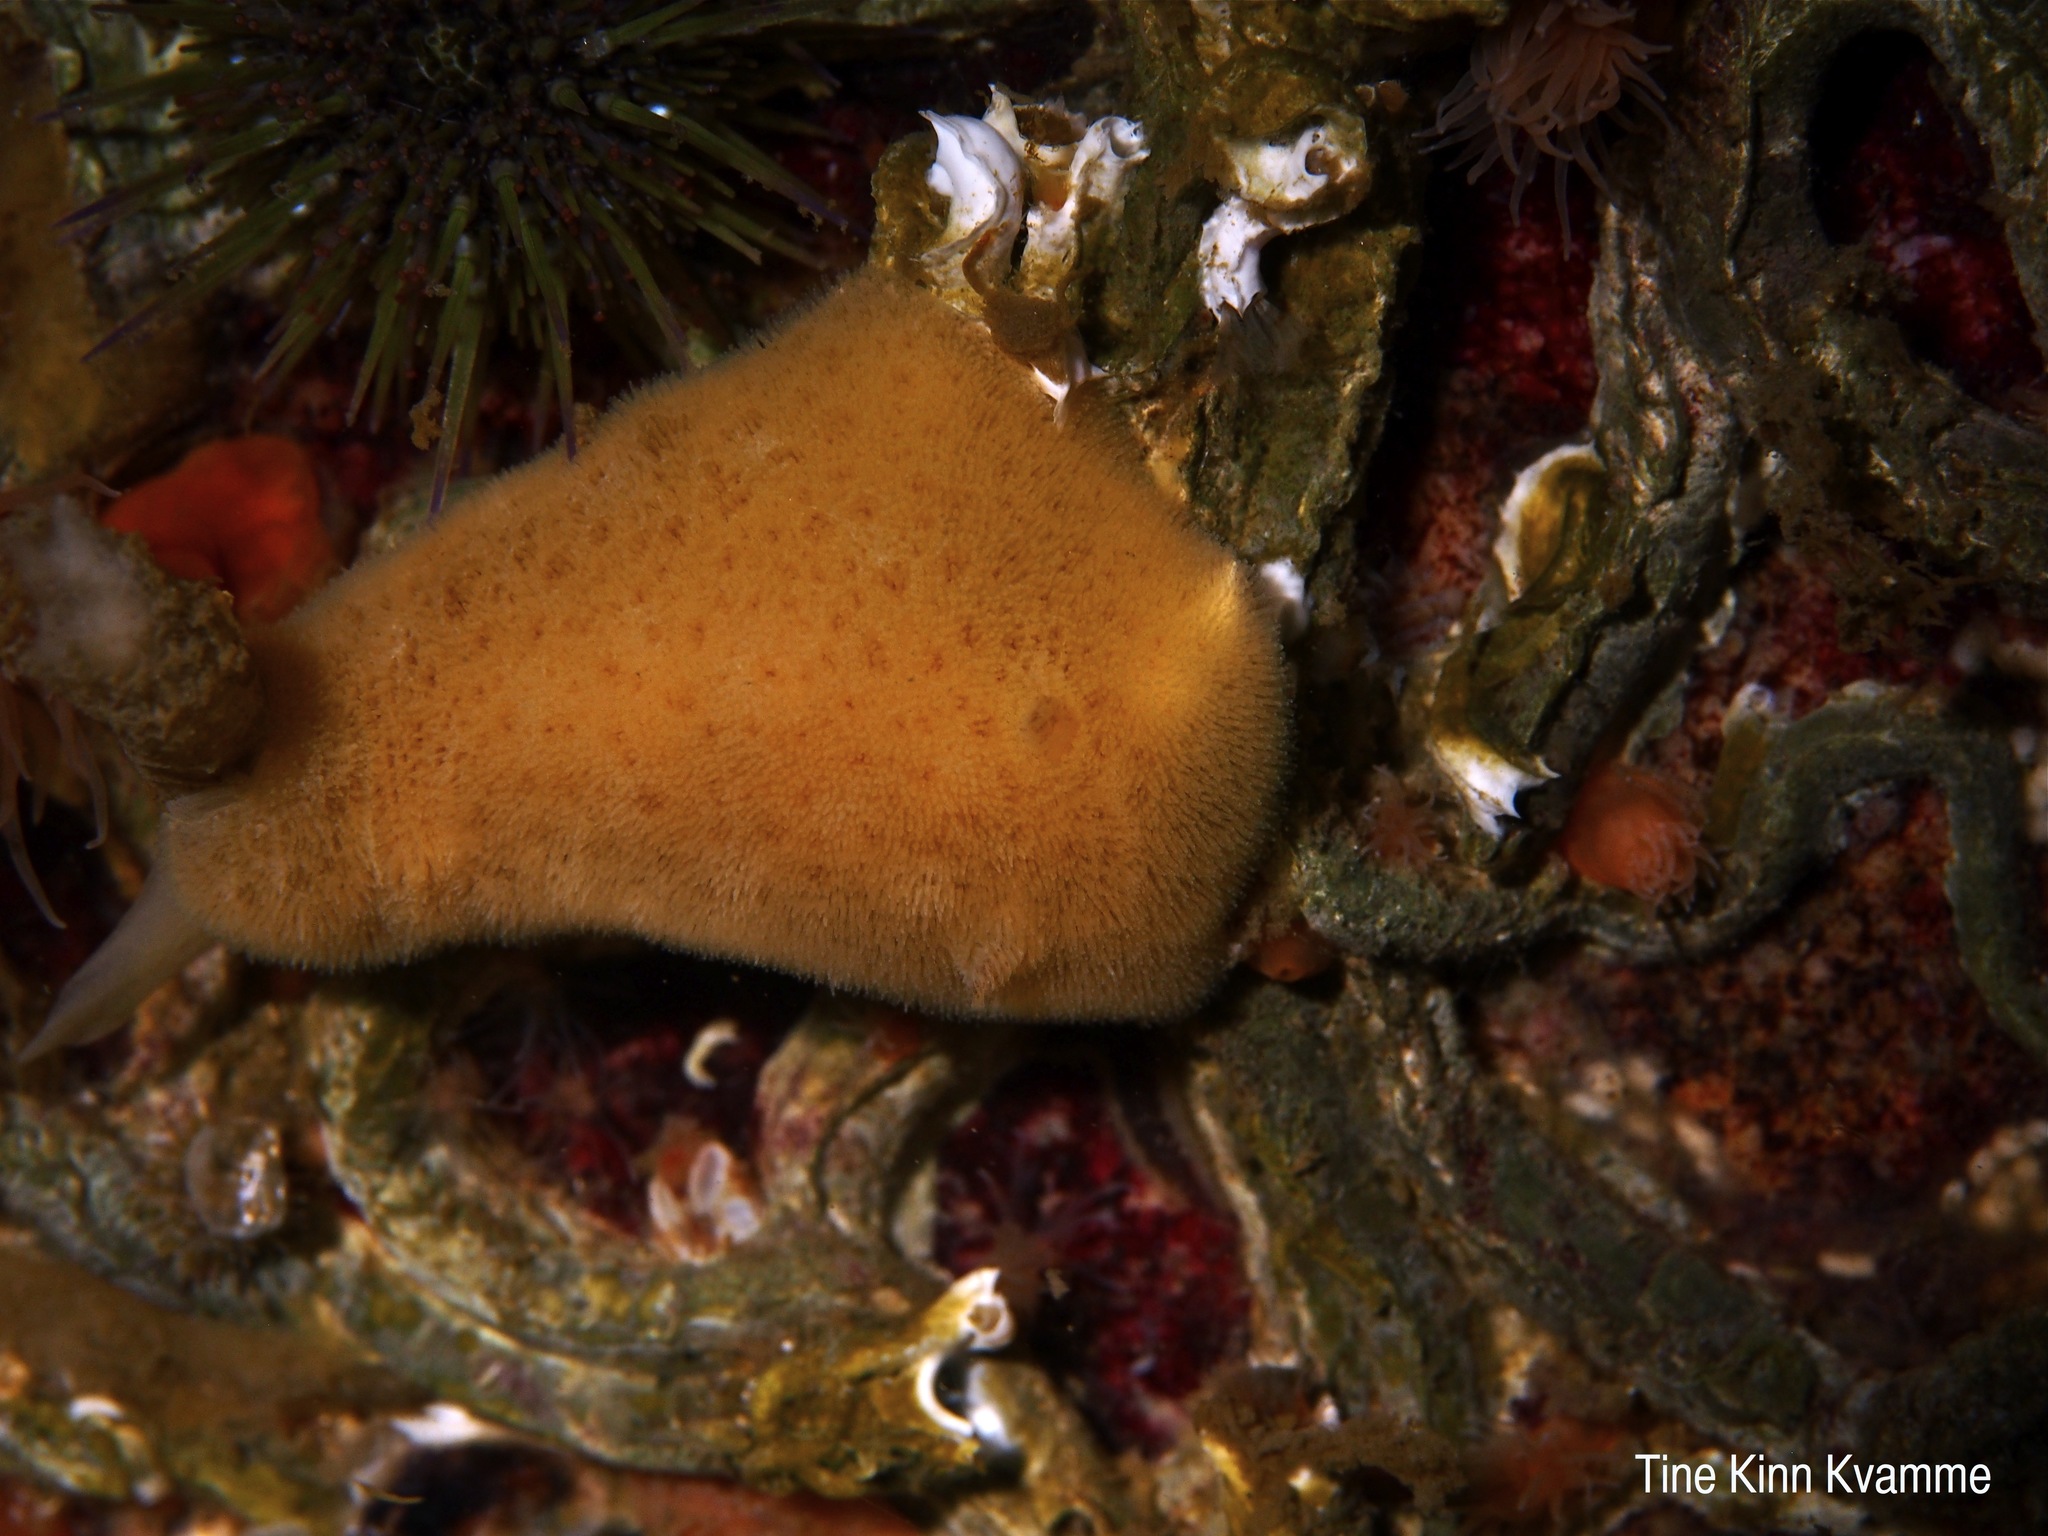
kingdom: Animalia
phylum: Mollusca
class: Gastropoda
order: Nudibranchia
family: Discodorididae
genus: Jorunna
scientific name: Jorunna tomentosa
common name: Grey sea slug
